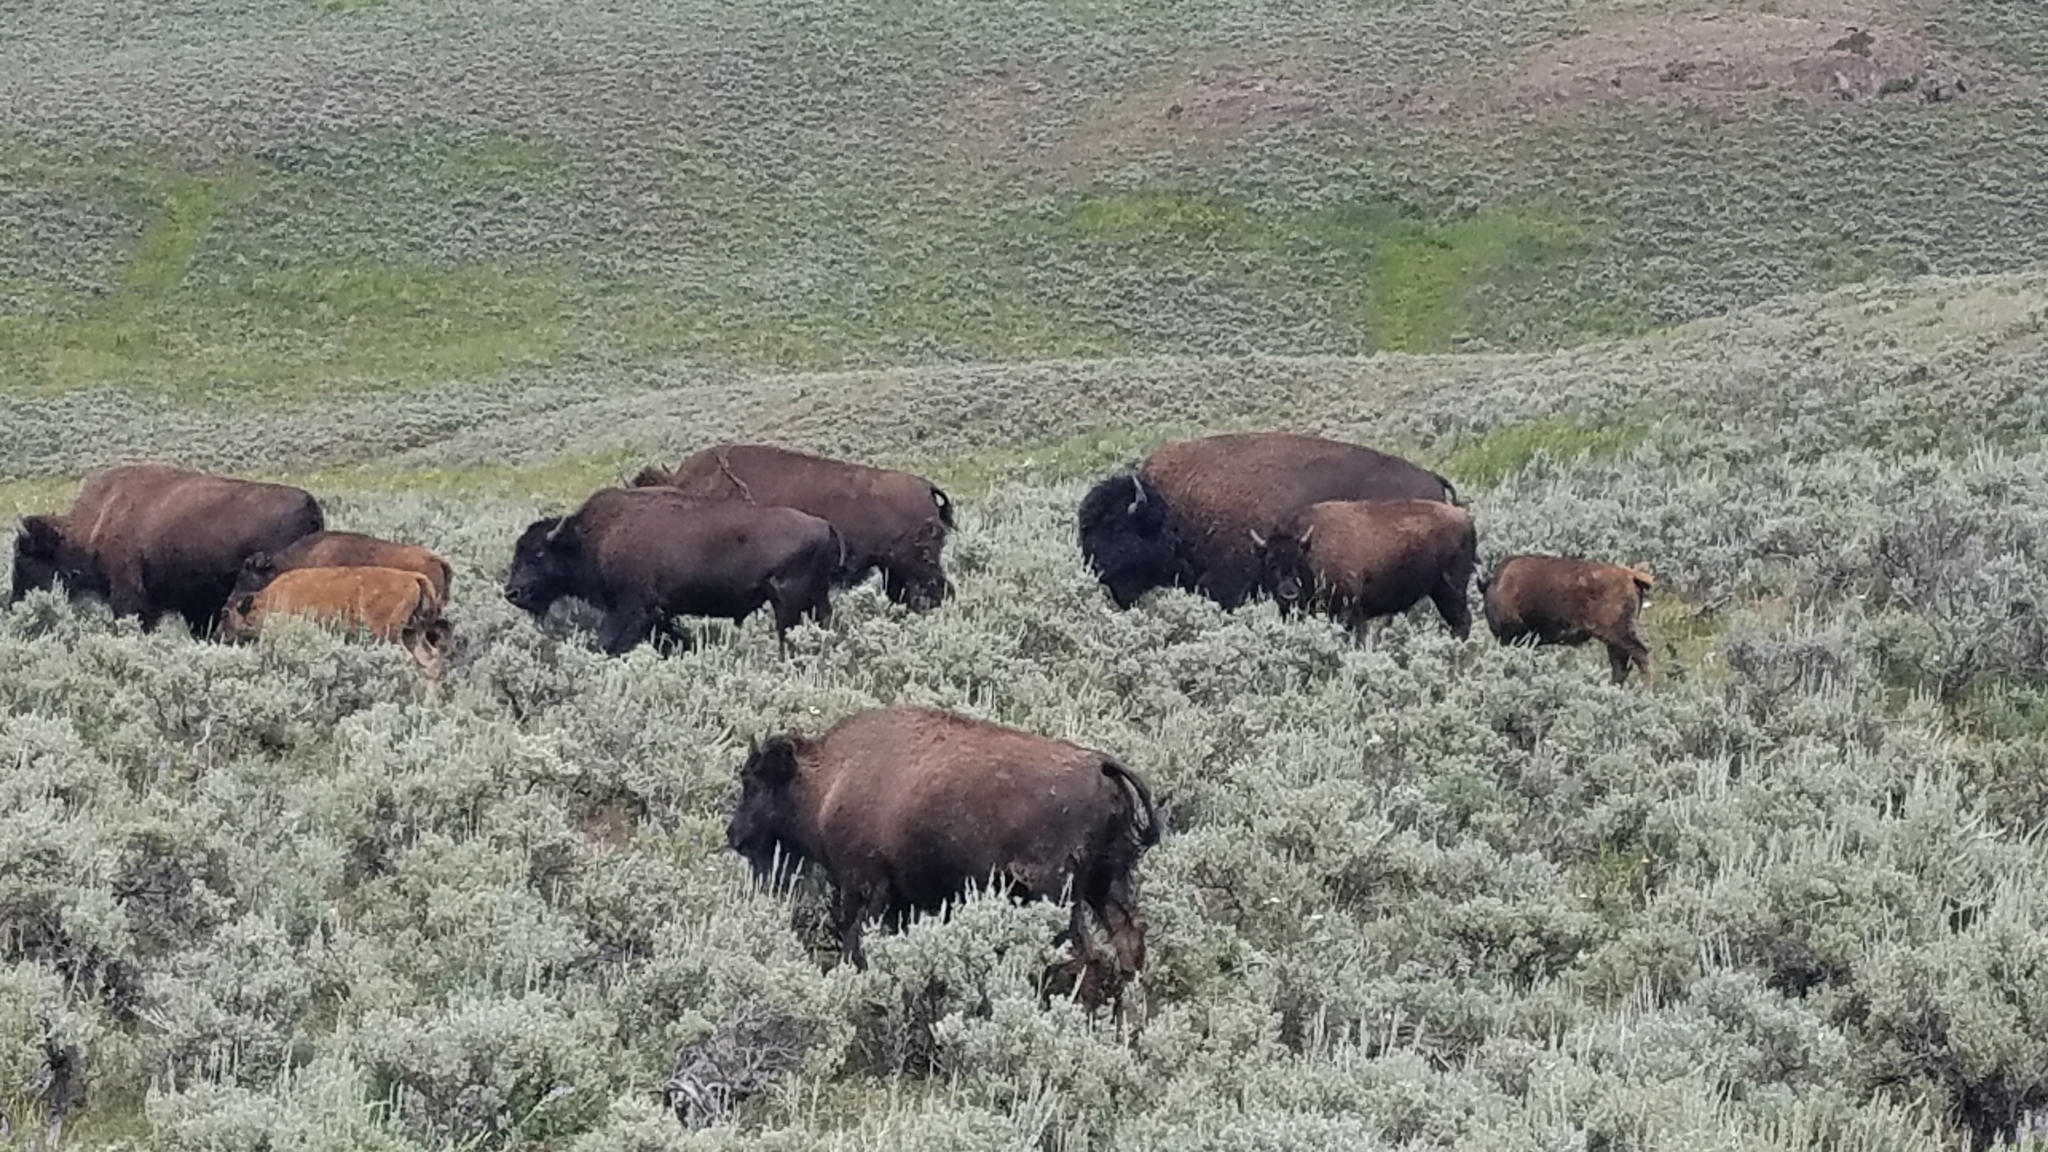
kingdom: Animalia
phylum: Chordata
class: Mammalia
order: Artiodactyla
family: Bovidae
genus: Bison
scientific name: Bison bison
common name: American bison
